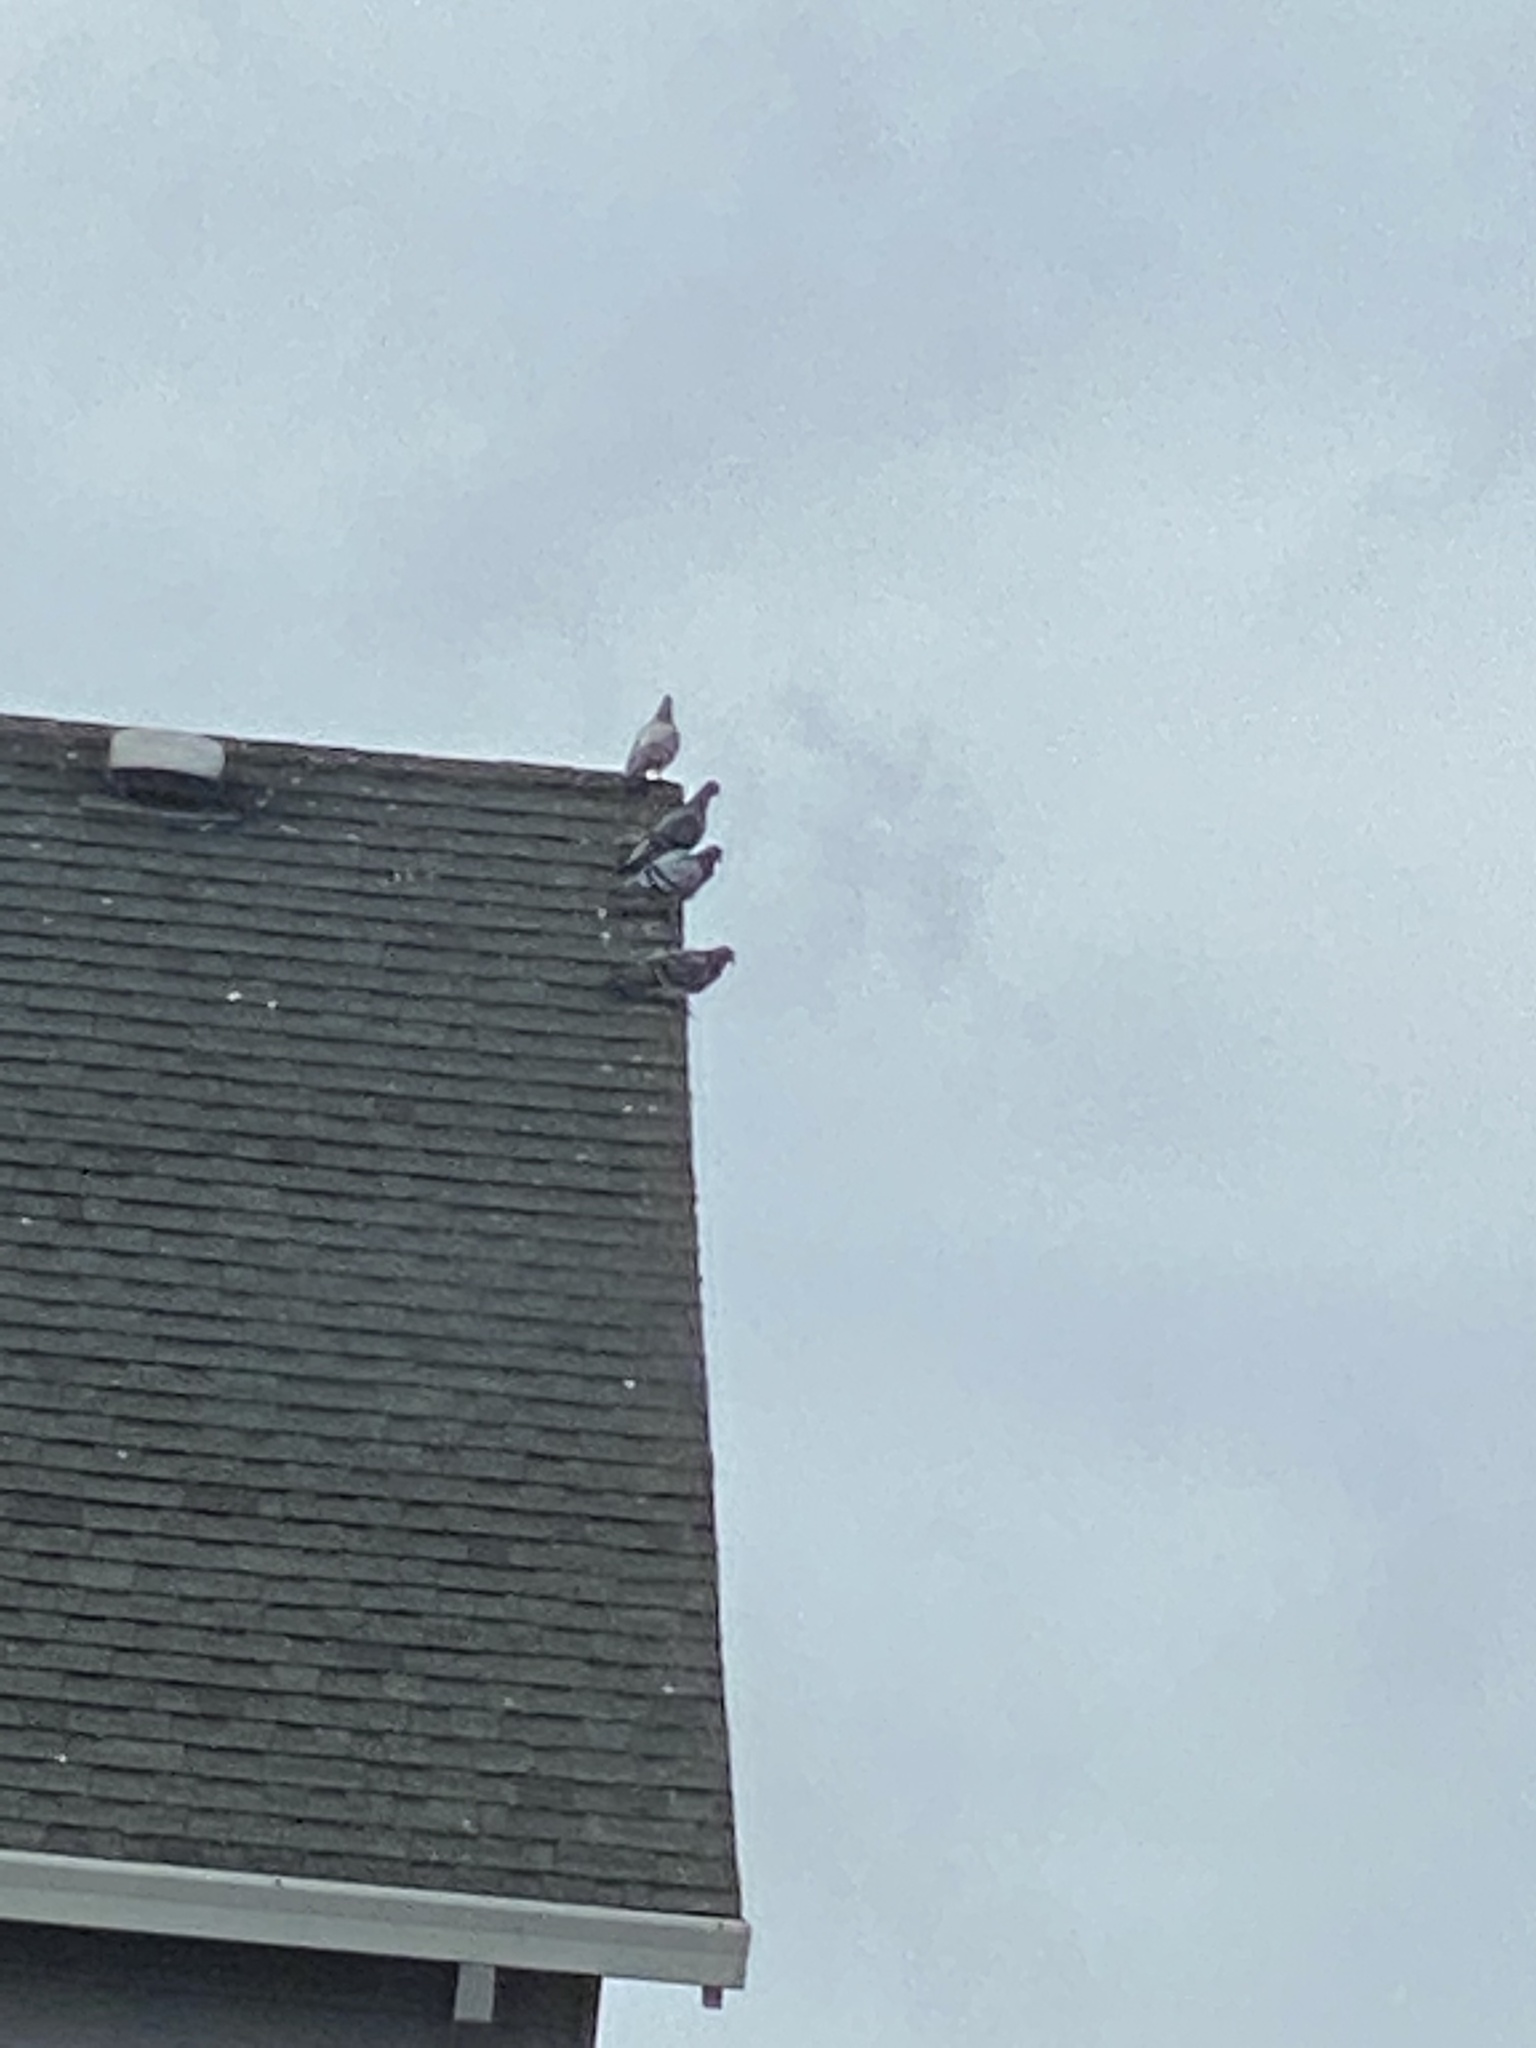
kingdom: Animalia
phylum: Chordata
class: Aves
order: Columbiformes
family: Columbidae
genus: Columba
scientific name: Columba livia
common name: Rock pigeon
